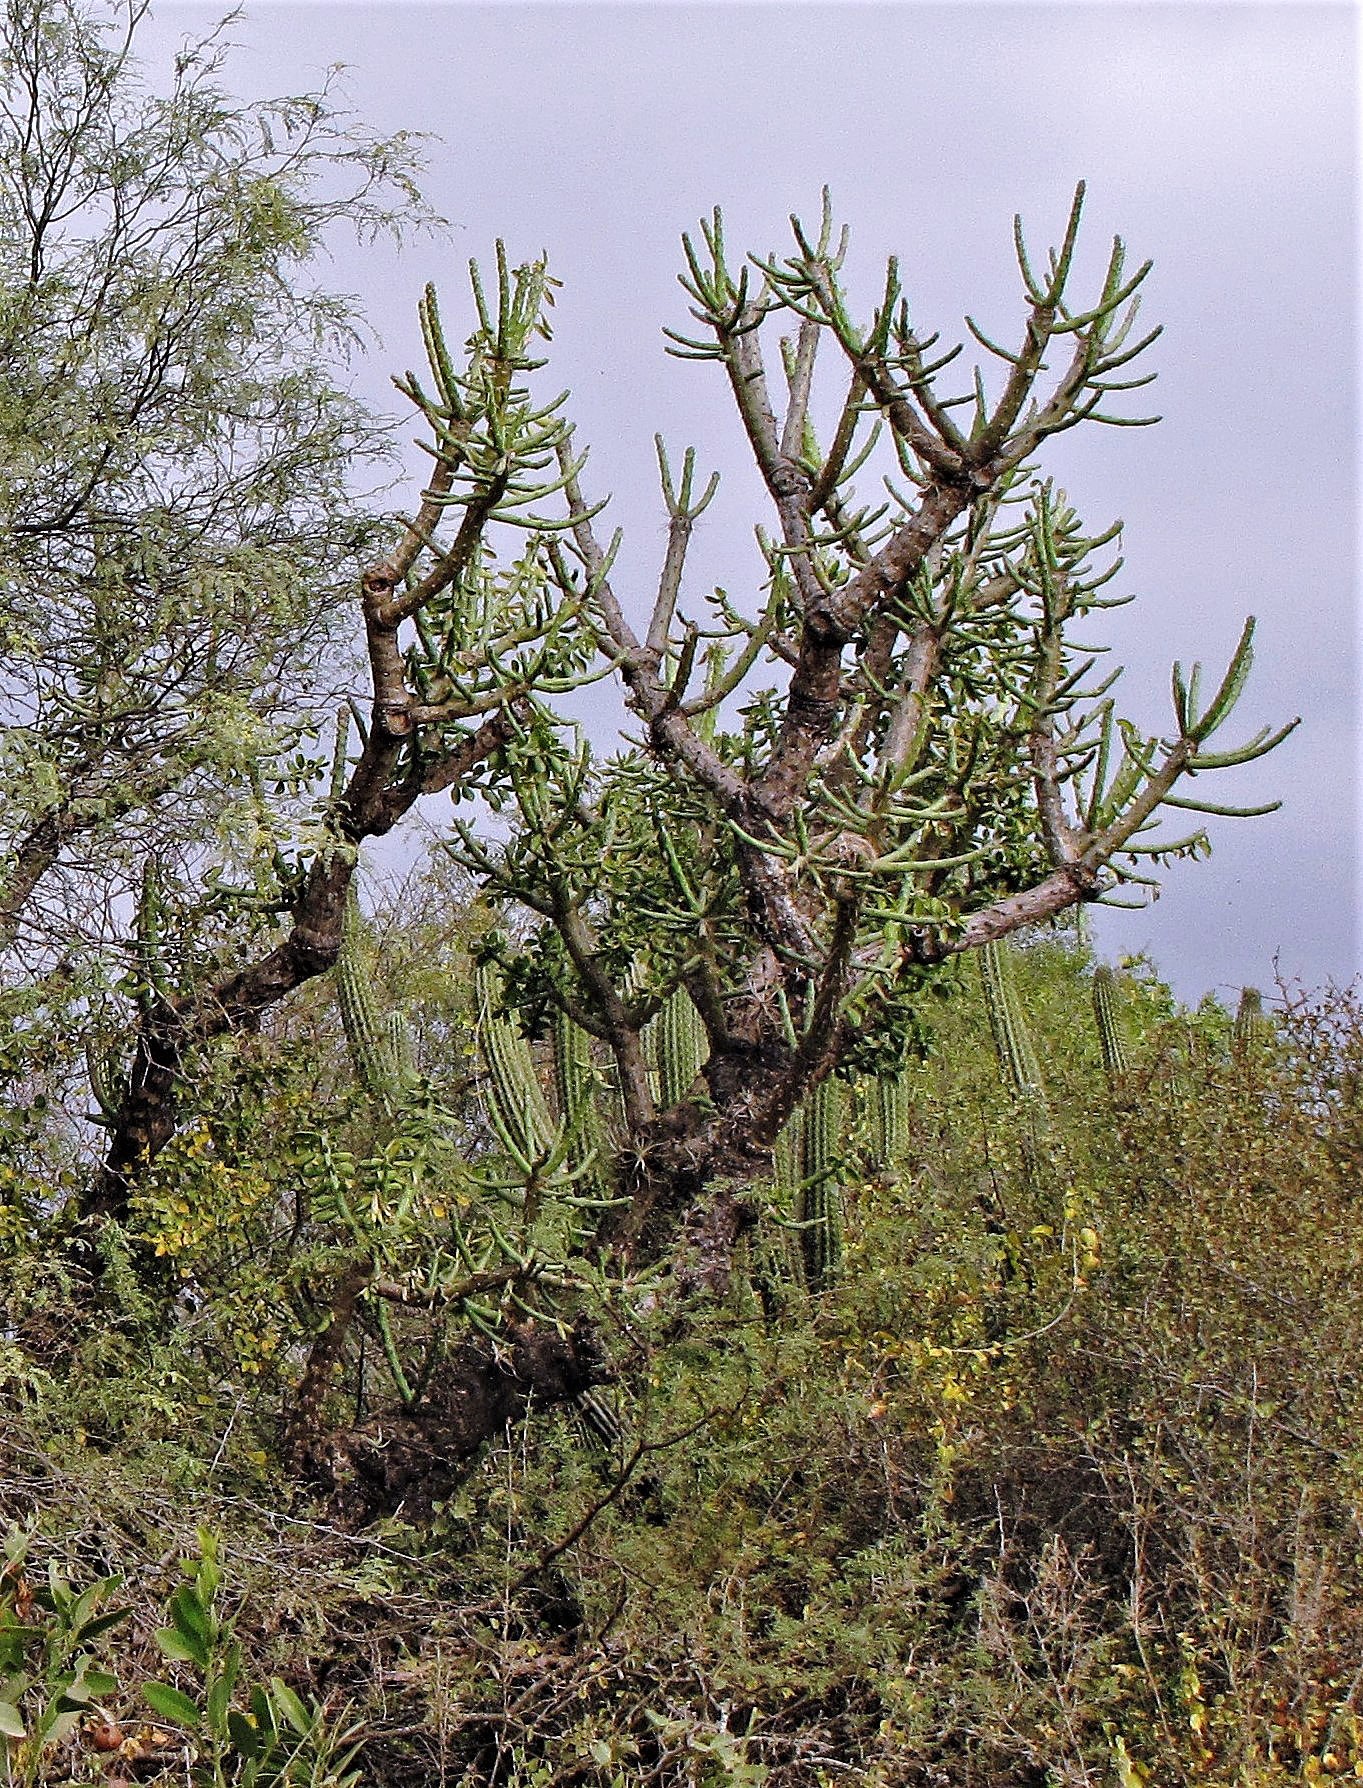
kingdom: Plantae
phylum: Tracheophyta
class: Magnoliopsida
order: Caryophyllales
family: Cactaceae
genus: Quiabentia
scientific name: Quiabentia verticillata
